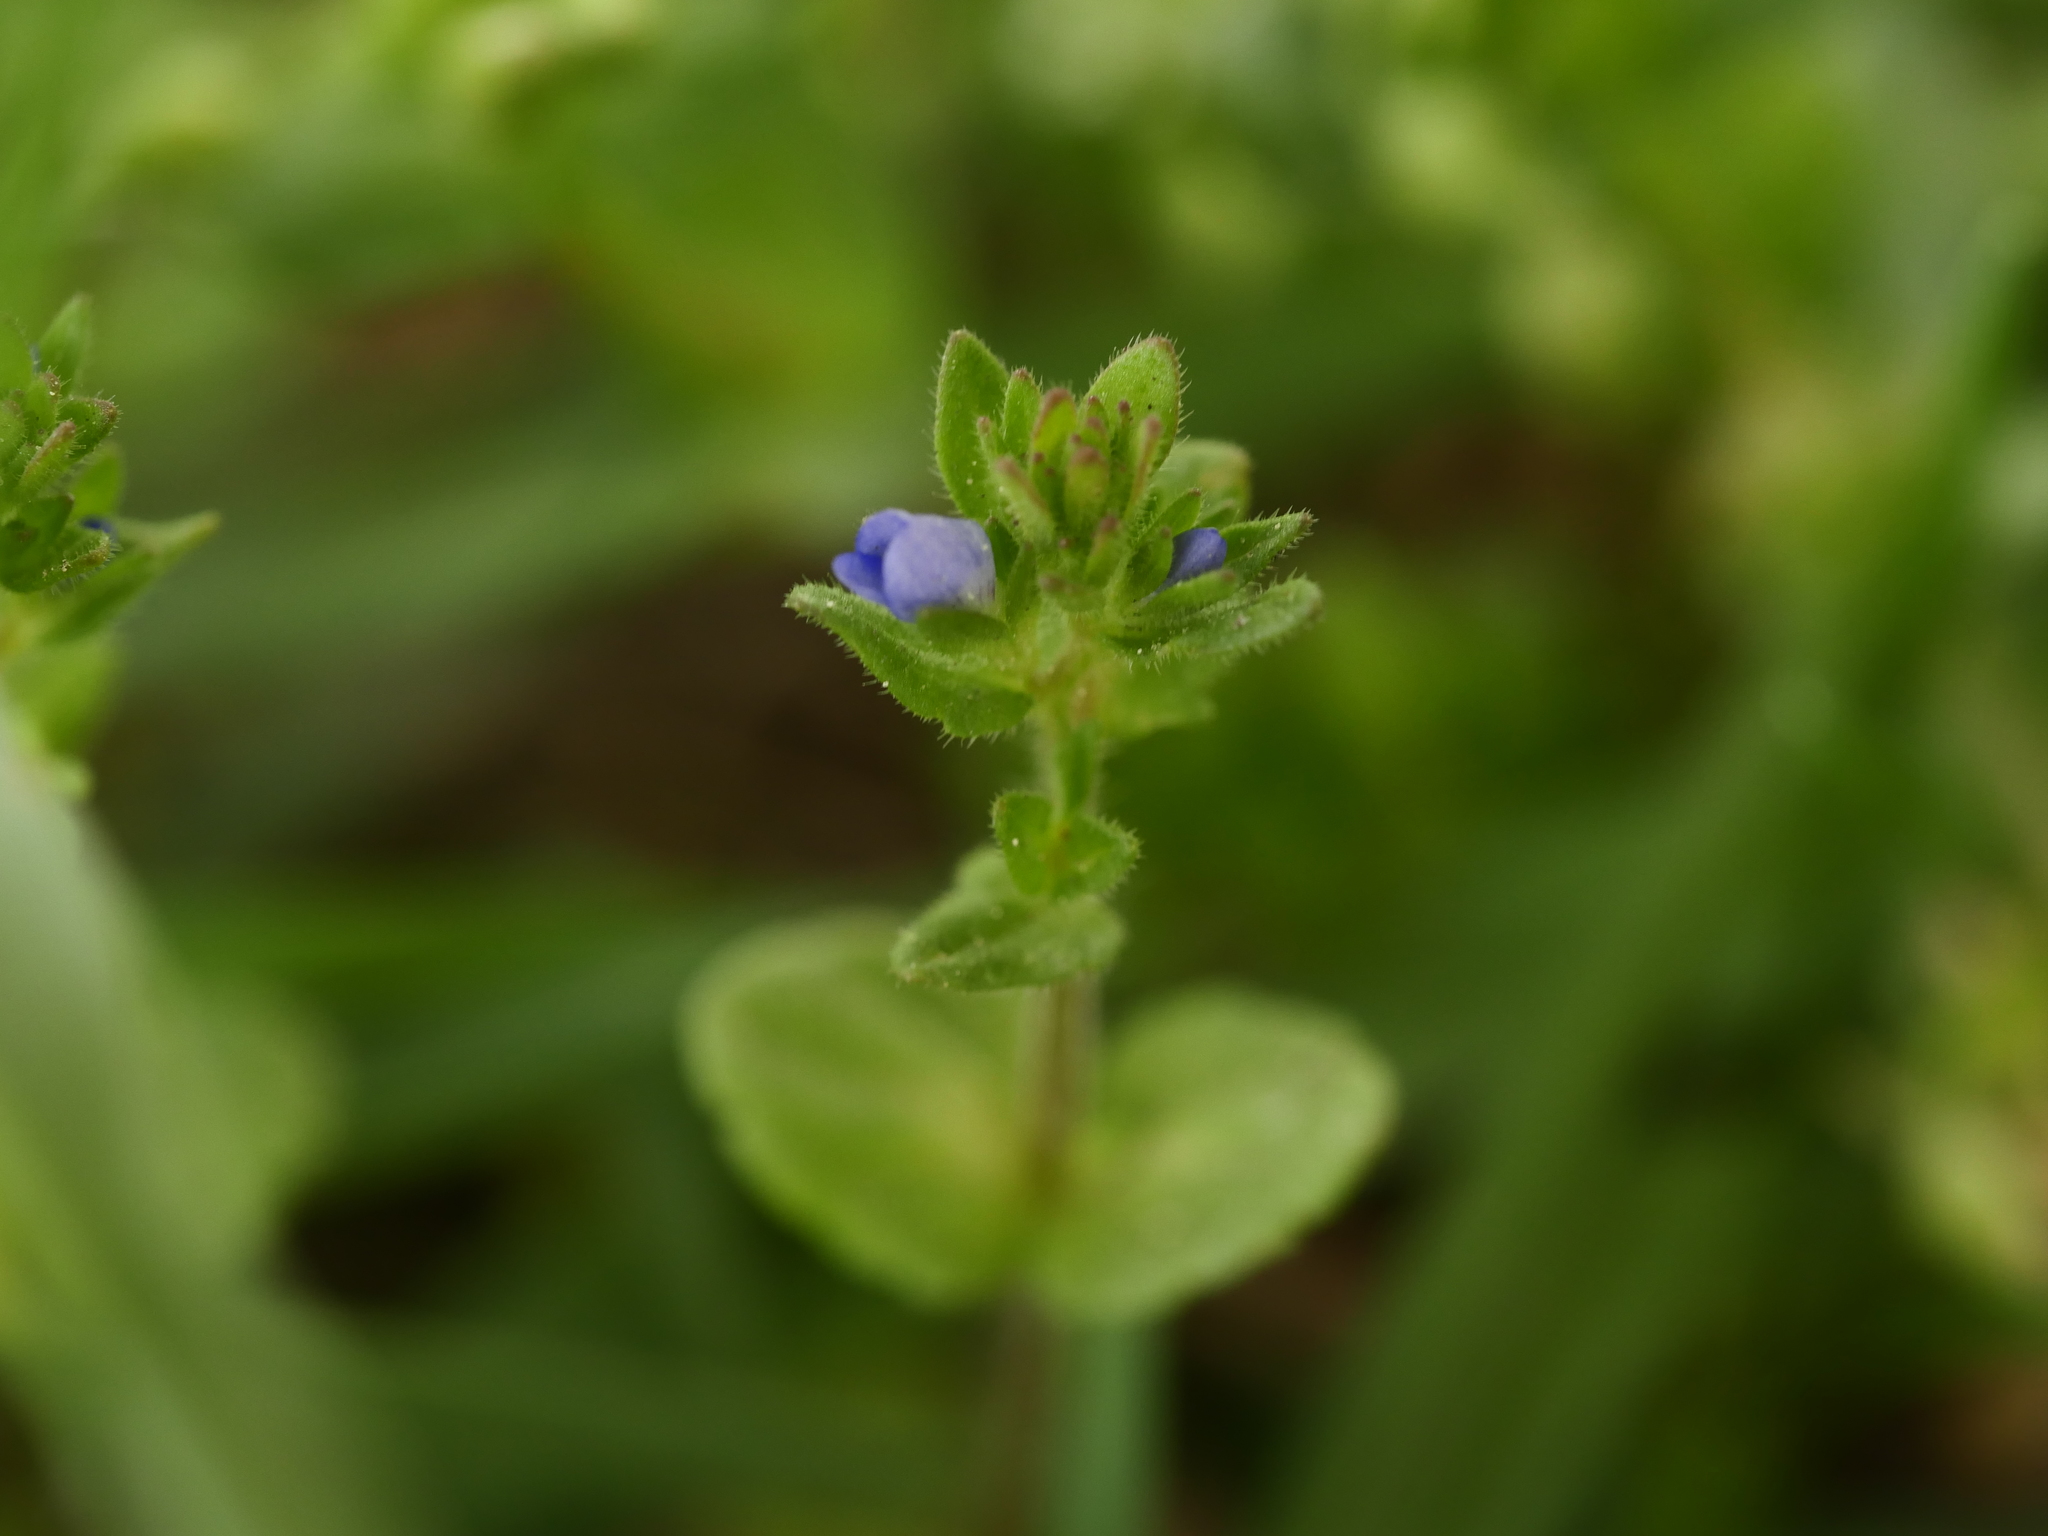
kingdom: Plantae
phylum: Tracheophyta
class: Magnoliopsida
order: Lamiales
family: Plantaginaceae
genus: Veronica
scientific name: Veronica arvensis
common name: Corn speedwell
